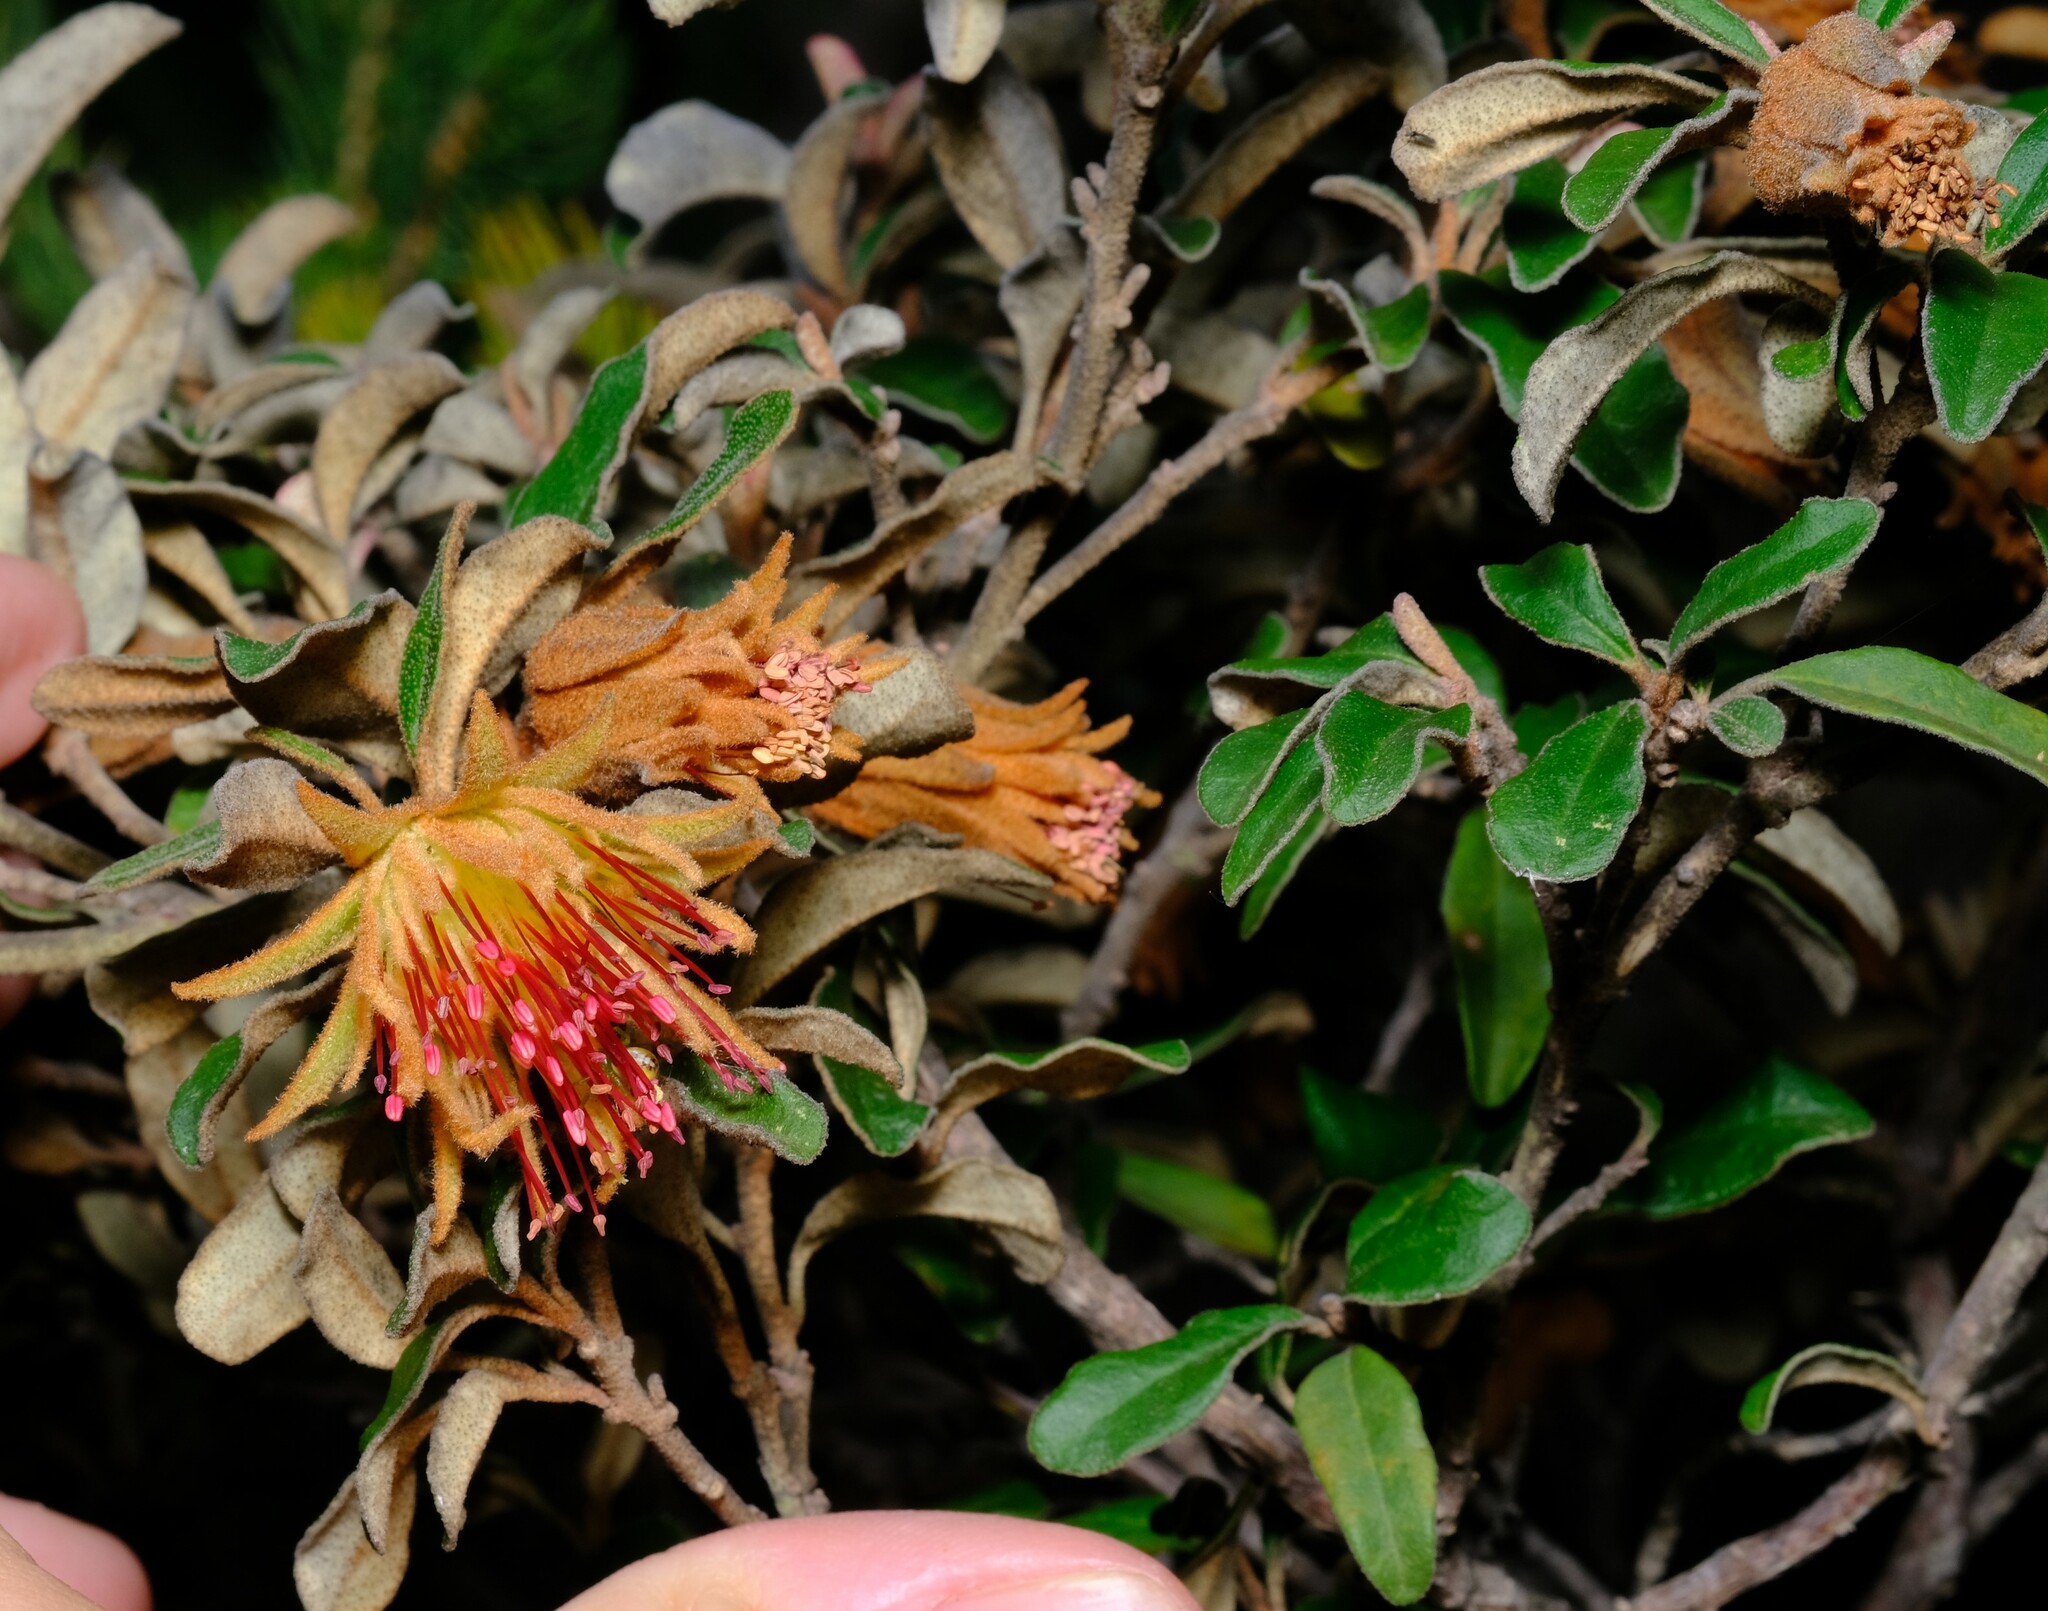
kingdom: Plantae
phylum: Tracheophyta
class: Magnoliopsida
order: Sapindales
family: Rutaceae
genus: Diplolaena
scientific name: Diplolaena eneabbensis
